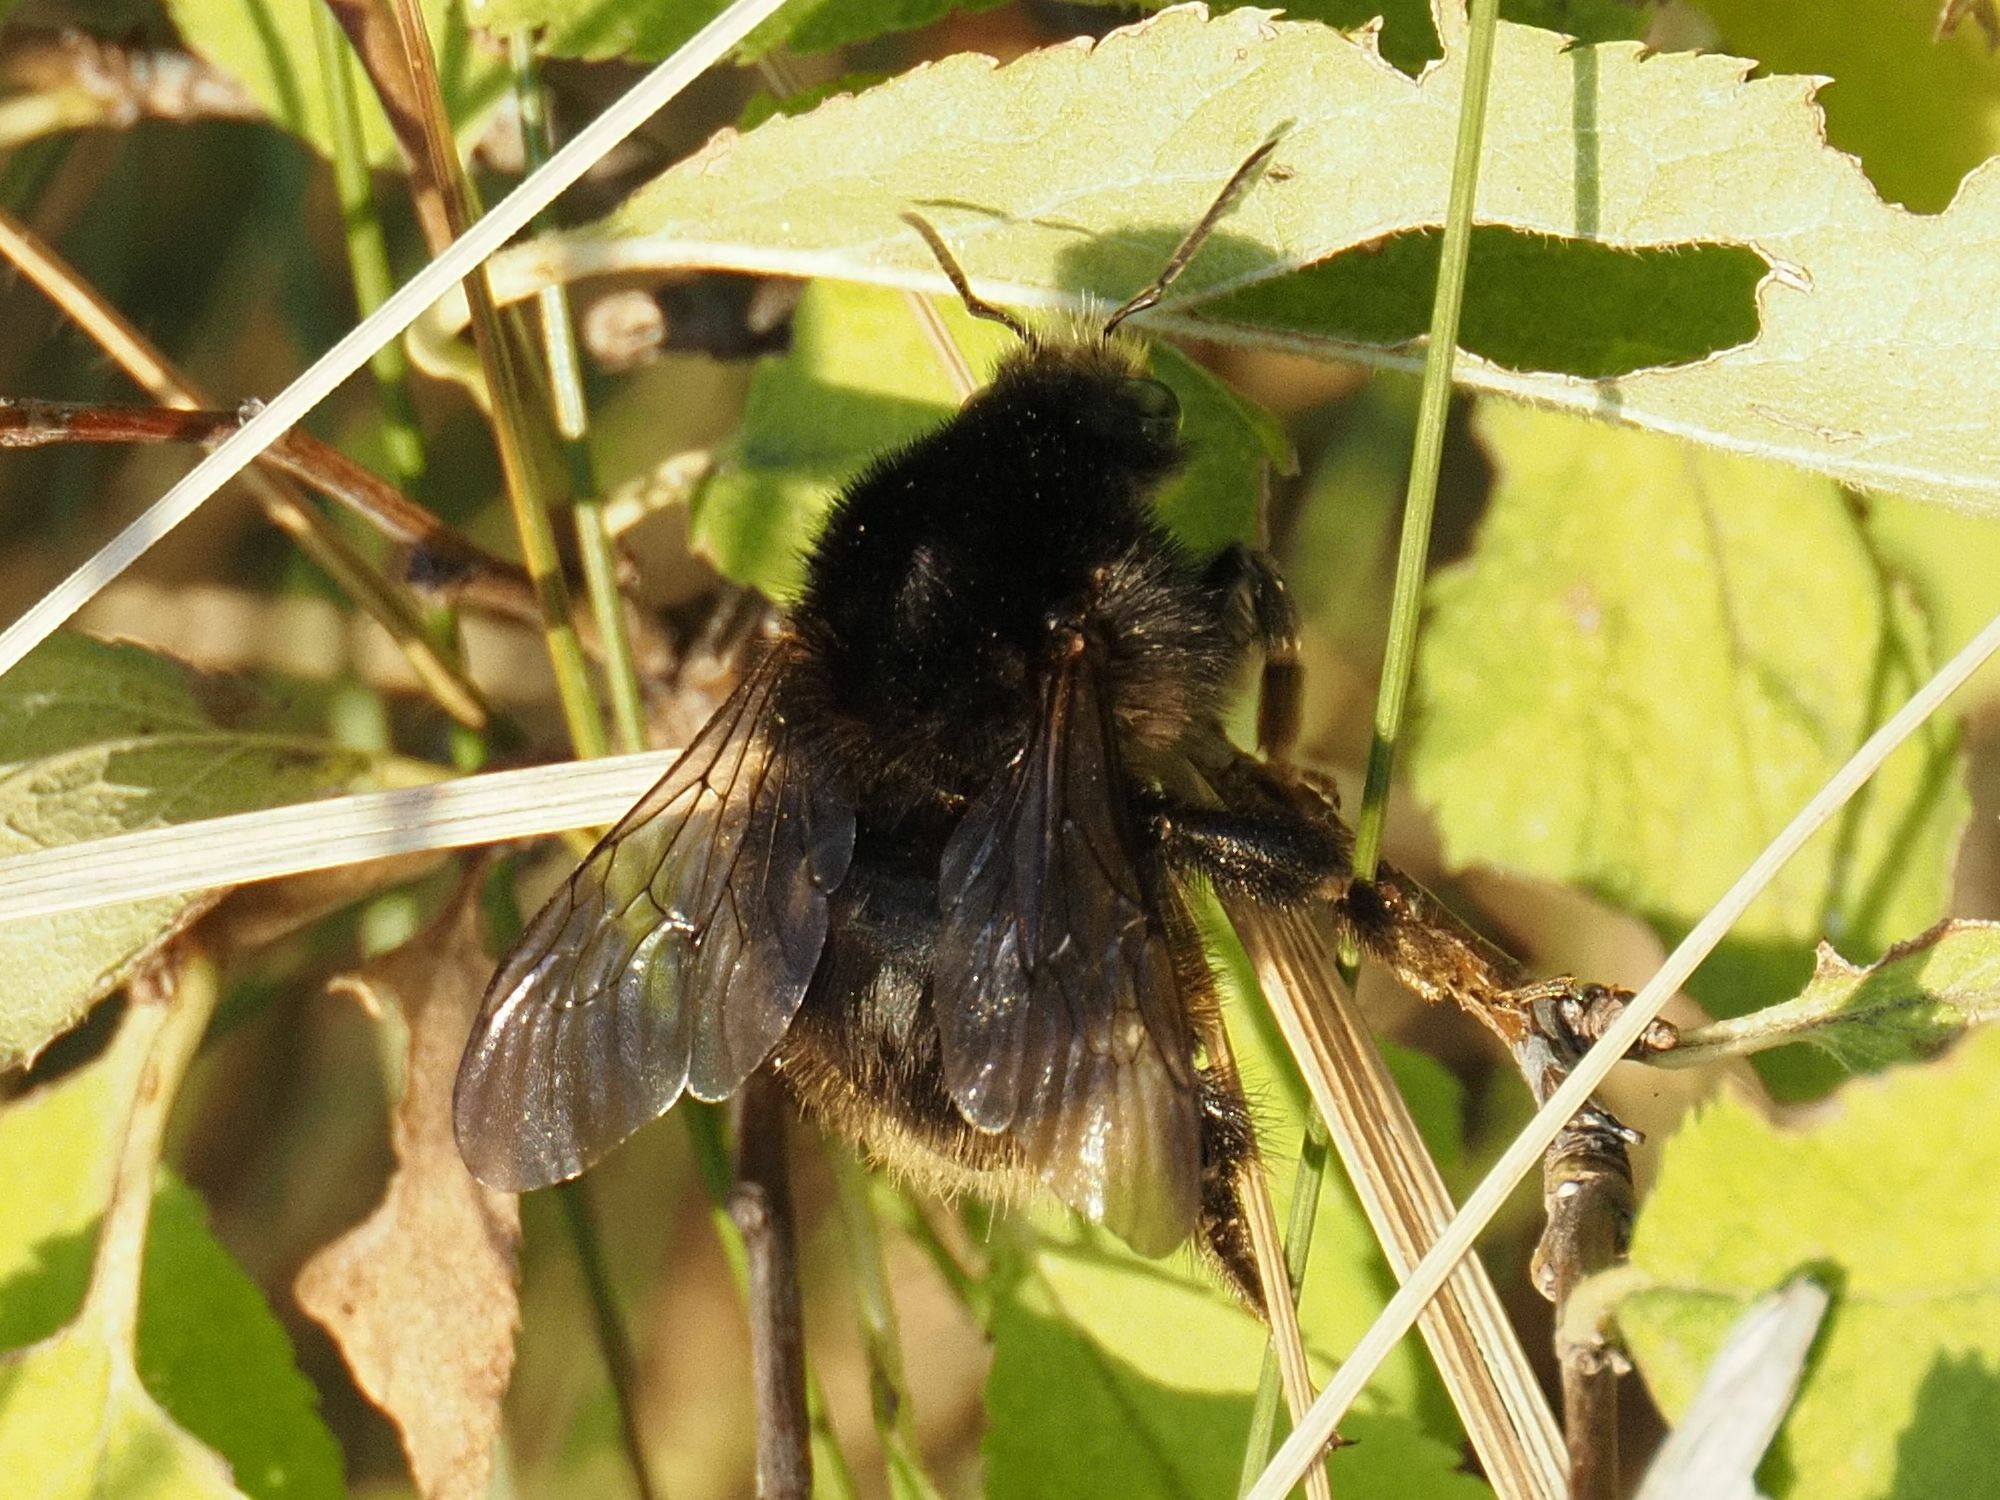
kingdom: Animalia
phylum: Arthropoda
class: Insecta
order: Hymenoptera
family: Apidae
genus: Bombus
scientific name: Bombus humilis
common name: Brown-banded carder-bee
